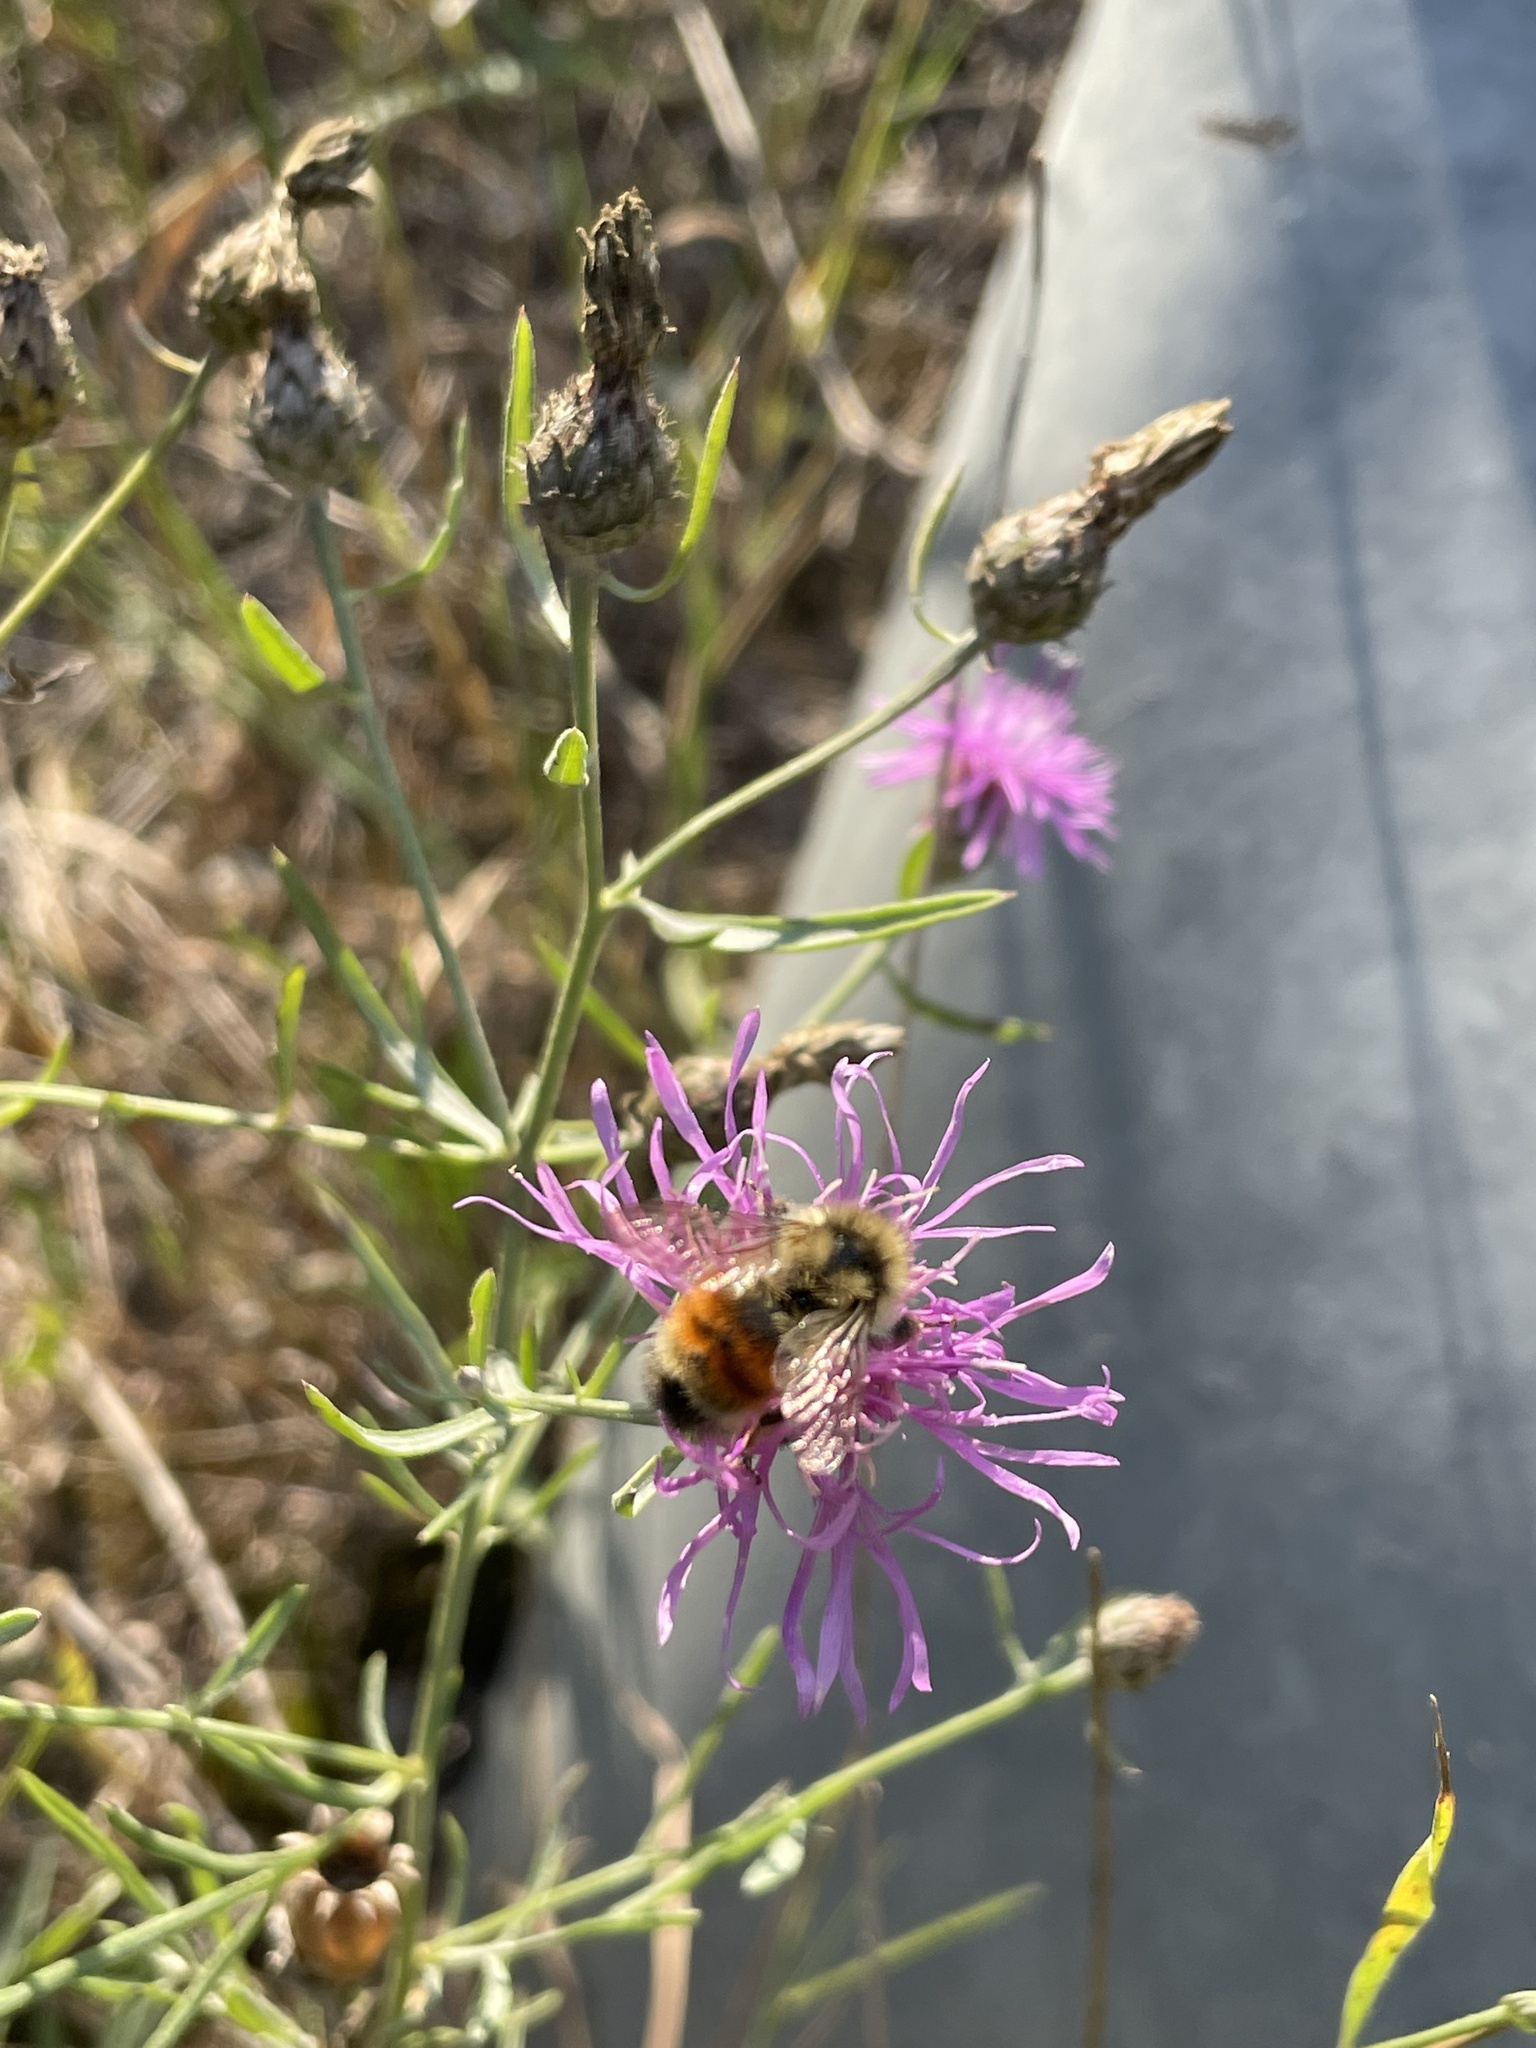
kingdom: Animalia
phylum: Arthropoda
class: Insecta
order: Hymenoptera
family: Apidae
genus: Bombus
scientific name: Bombus ternarius
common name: Tri-colored bumble bee
